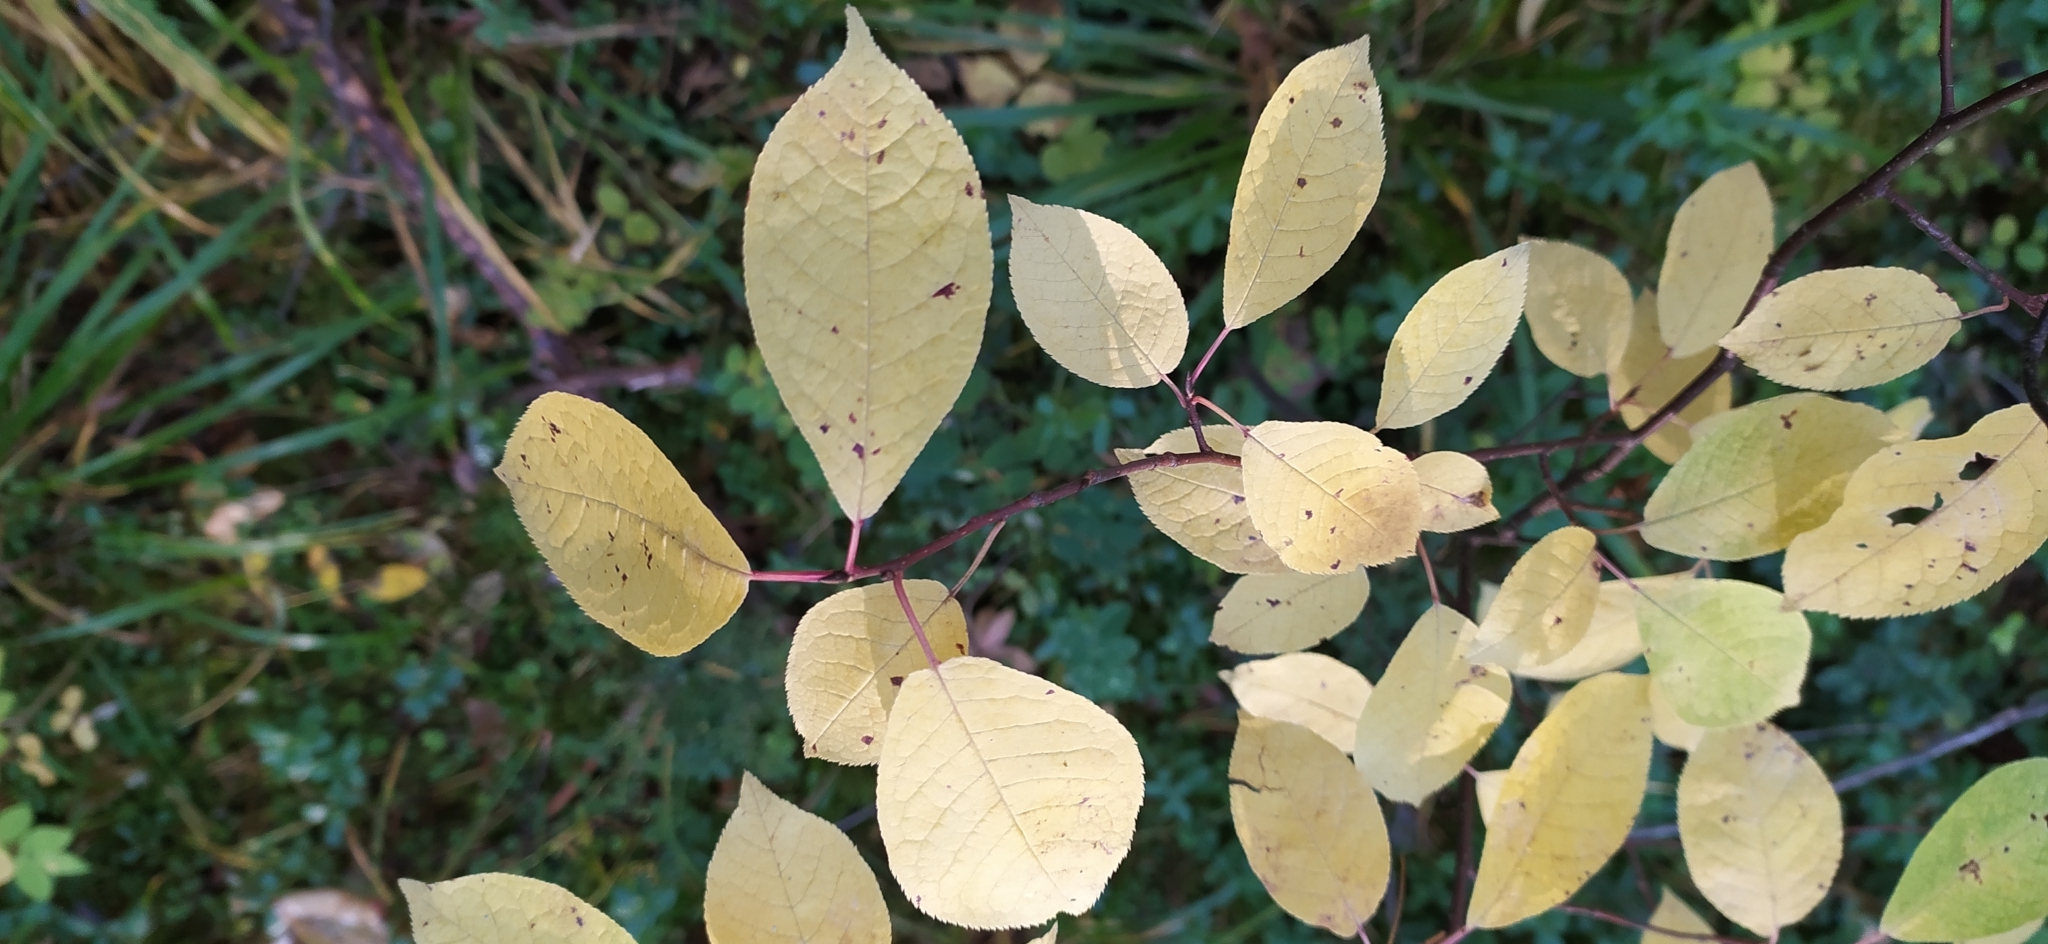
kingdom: Plantae
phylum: Tracheophyta
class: Magnoliopsida
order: Rosales
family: Rosaceae
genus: Prunus
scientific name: Prunus padus
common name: Bird cherry
